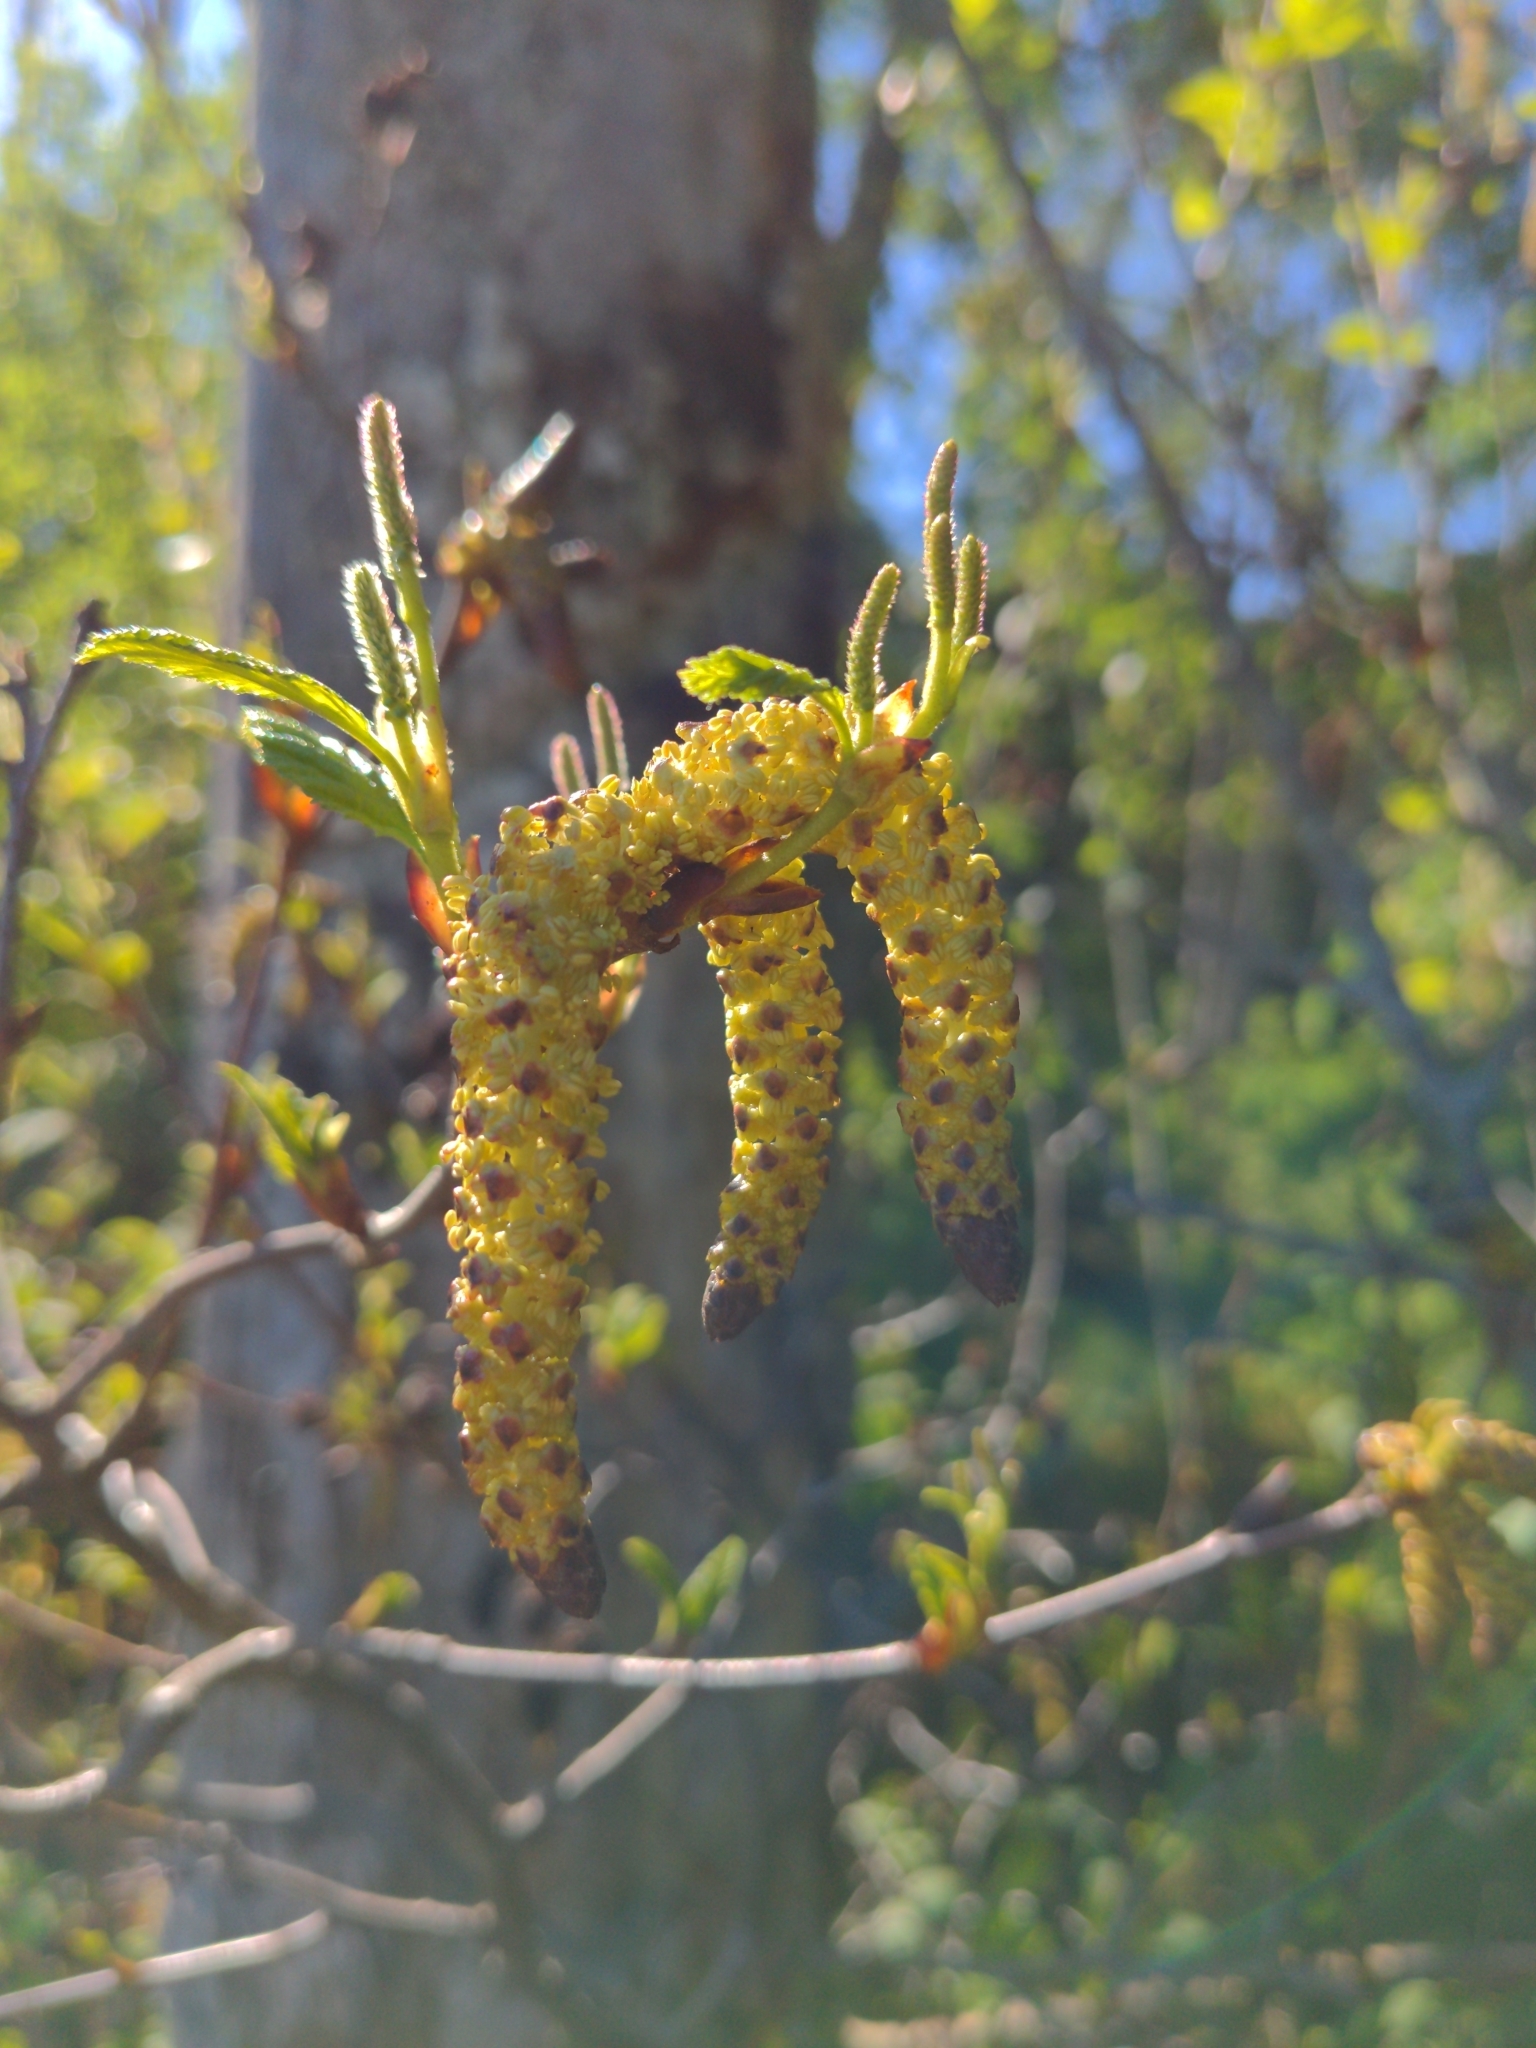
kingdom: Plantae
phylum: Tracheophyta
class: Magnoliopsida
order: Fagales
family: Betulaceae
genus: Alnus
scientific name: Alnus alnobetula
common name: Green alder
